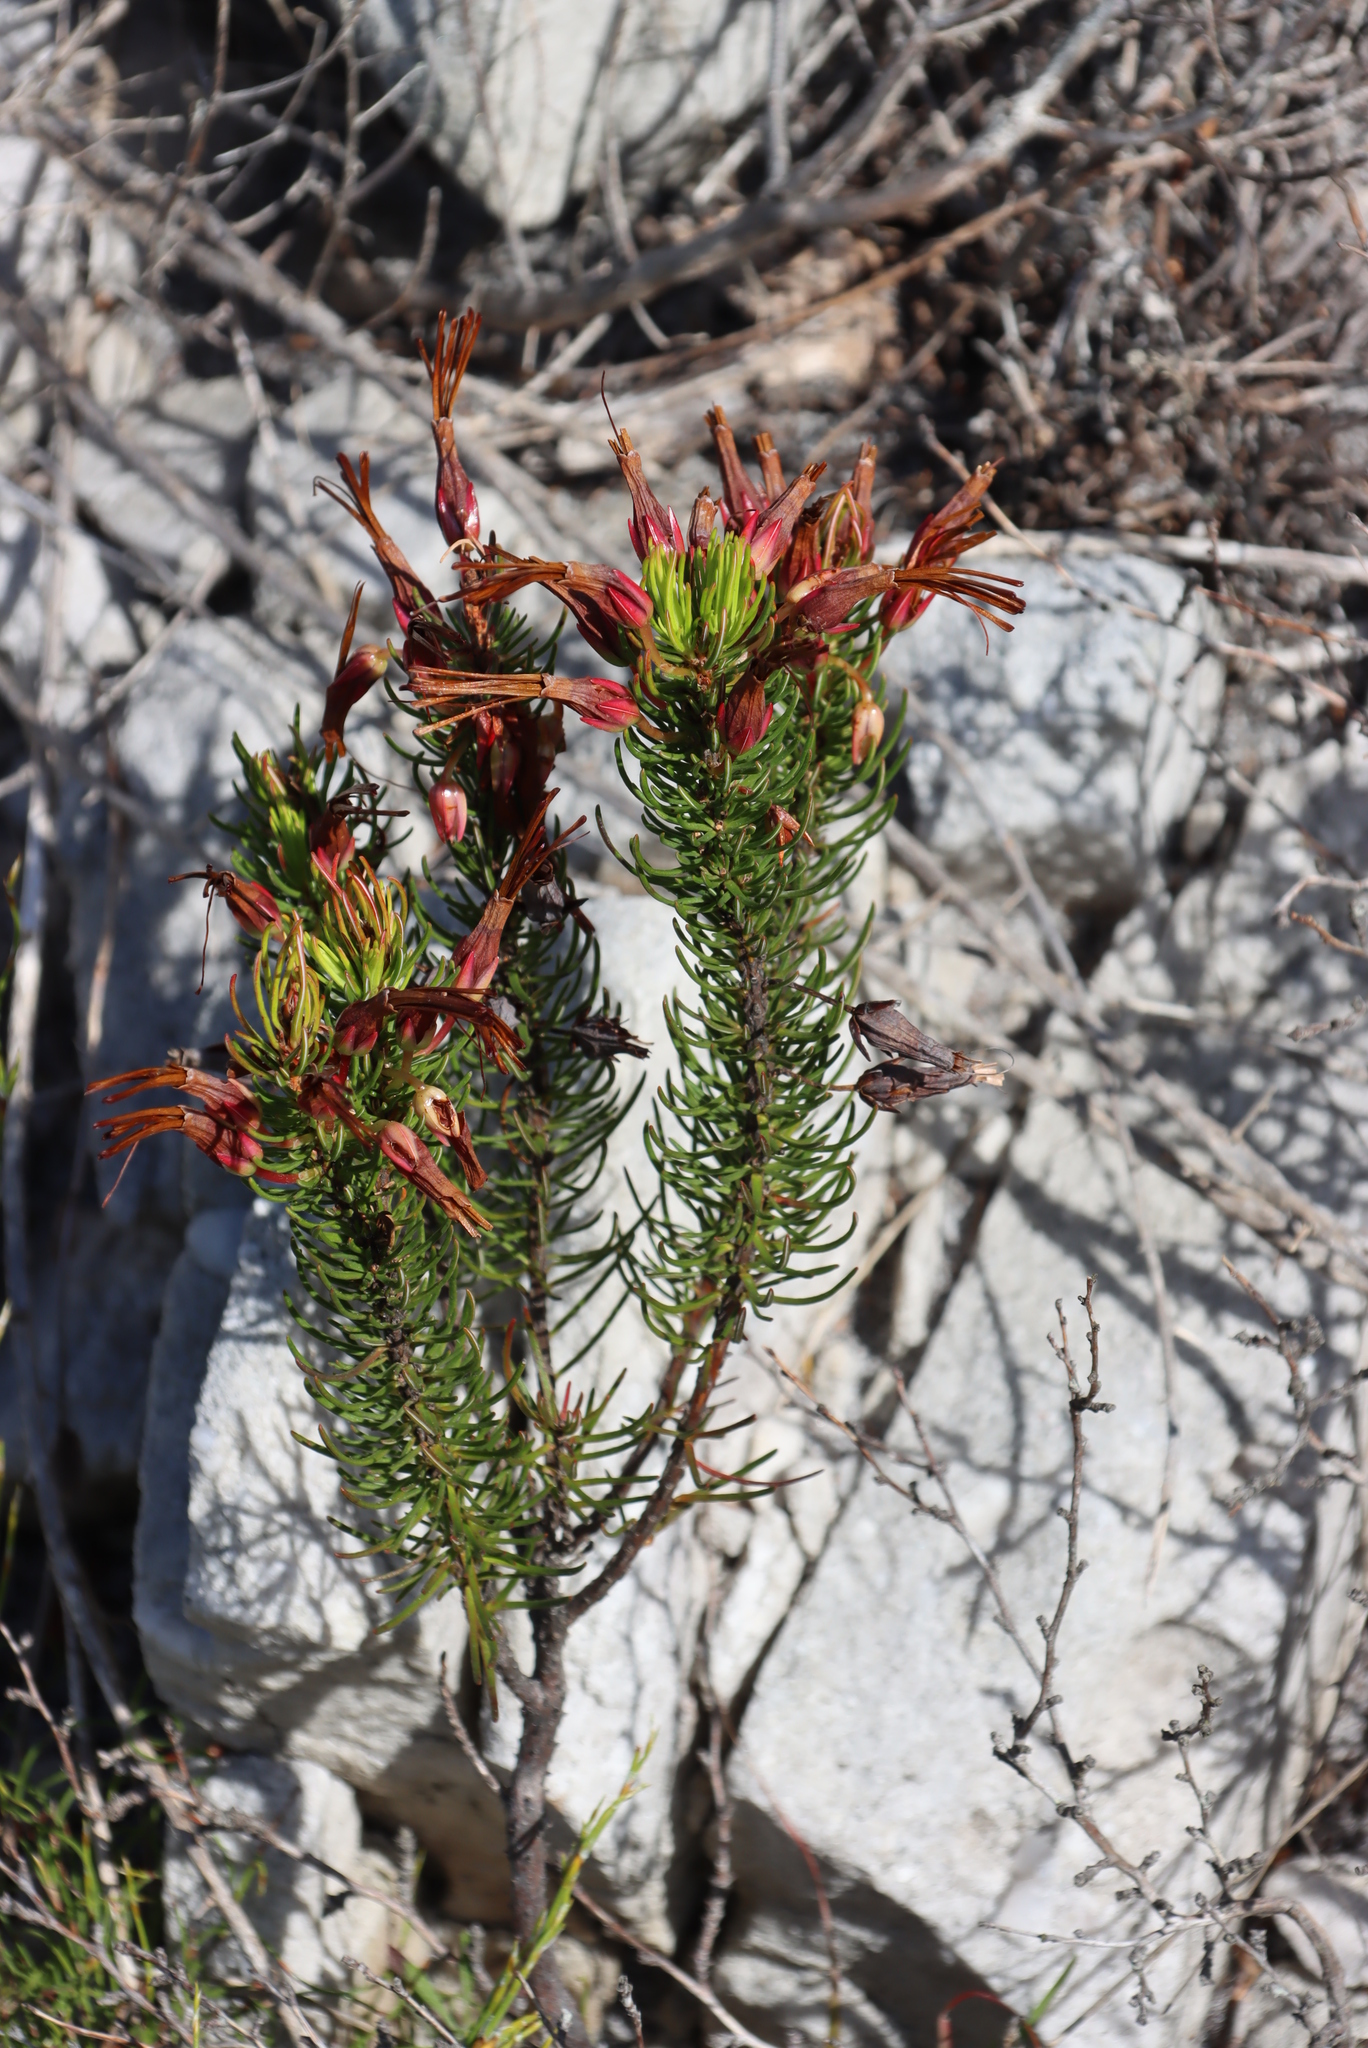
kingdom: Plantae
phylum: Tracheophyta
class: Magnoliopsida
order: Ericales
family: Ericaceae
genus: Erica
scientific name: Erica plukenetii
